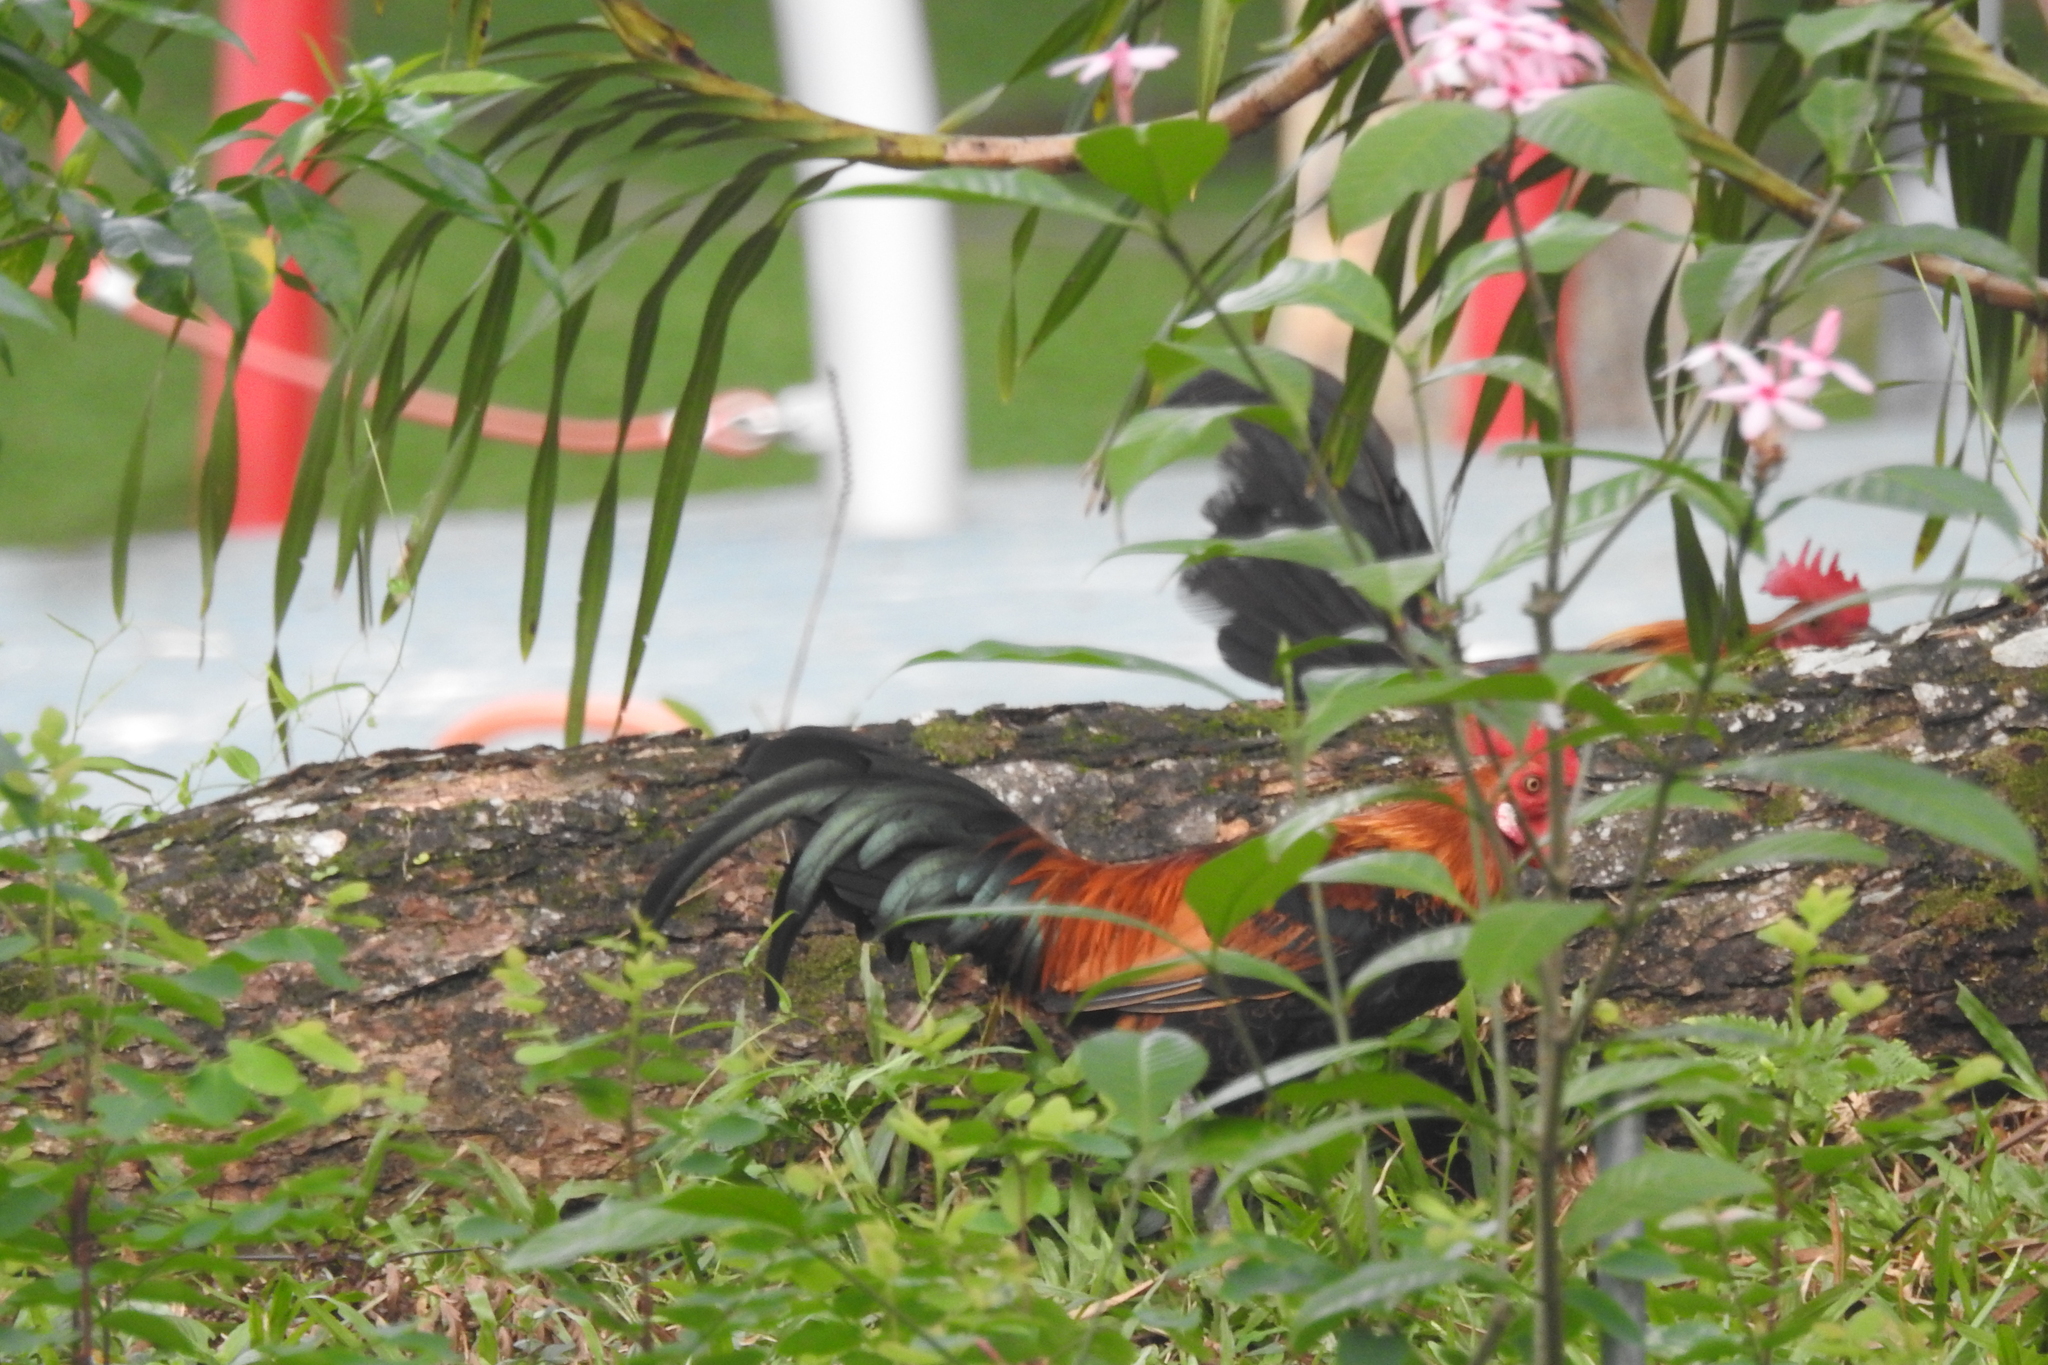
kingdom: Animalia
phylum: Chordata
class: Aves
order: Galliformes
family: Phasianidae
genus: Gallus
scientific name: Gallus gallus
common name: Red junglefowl
